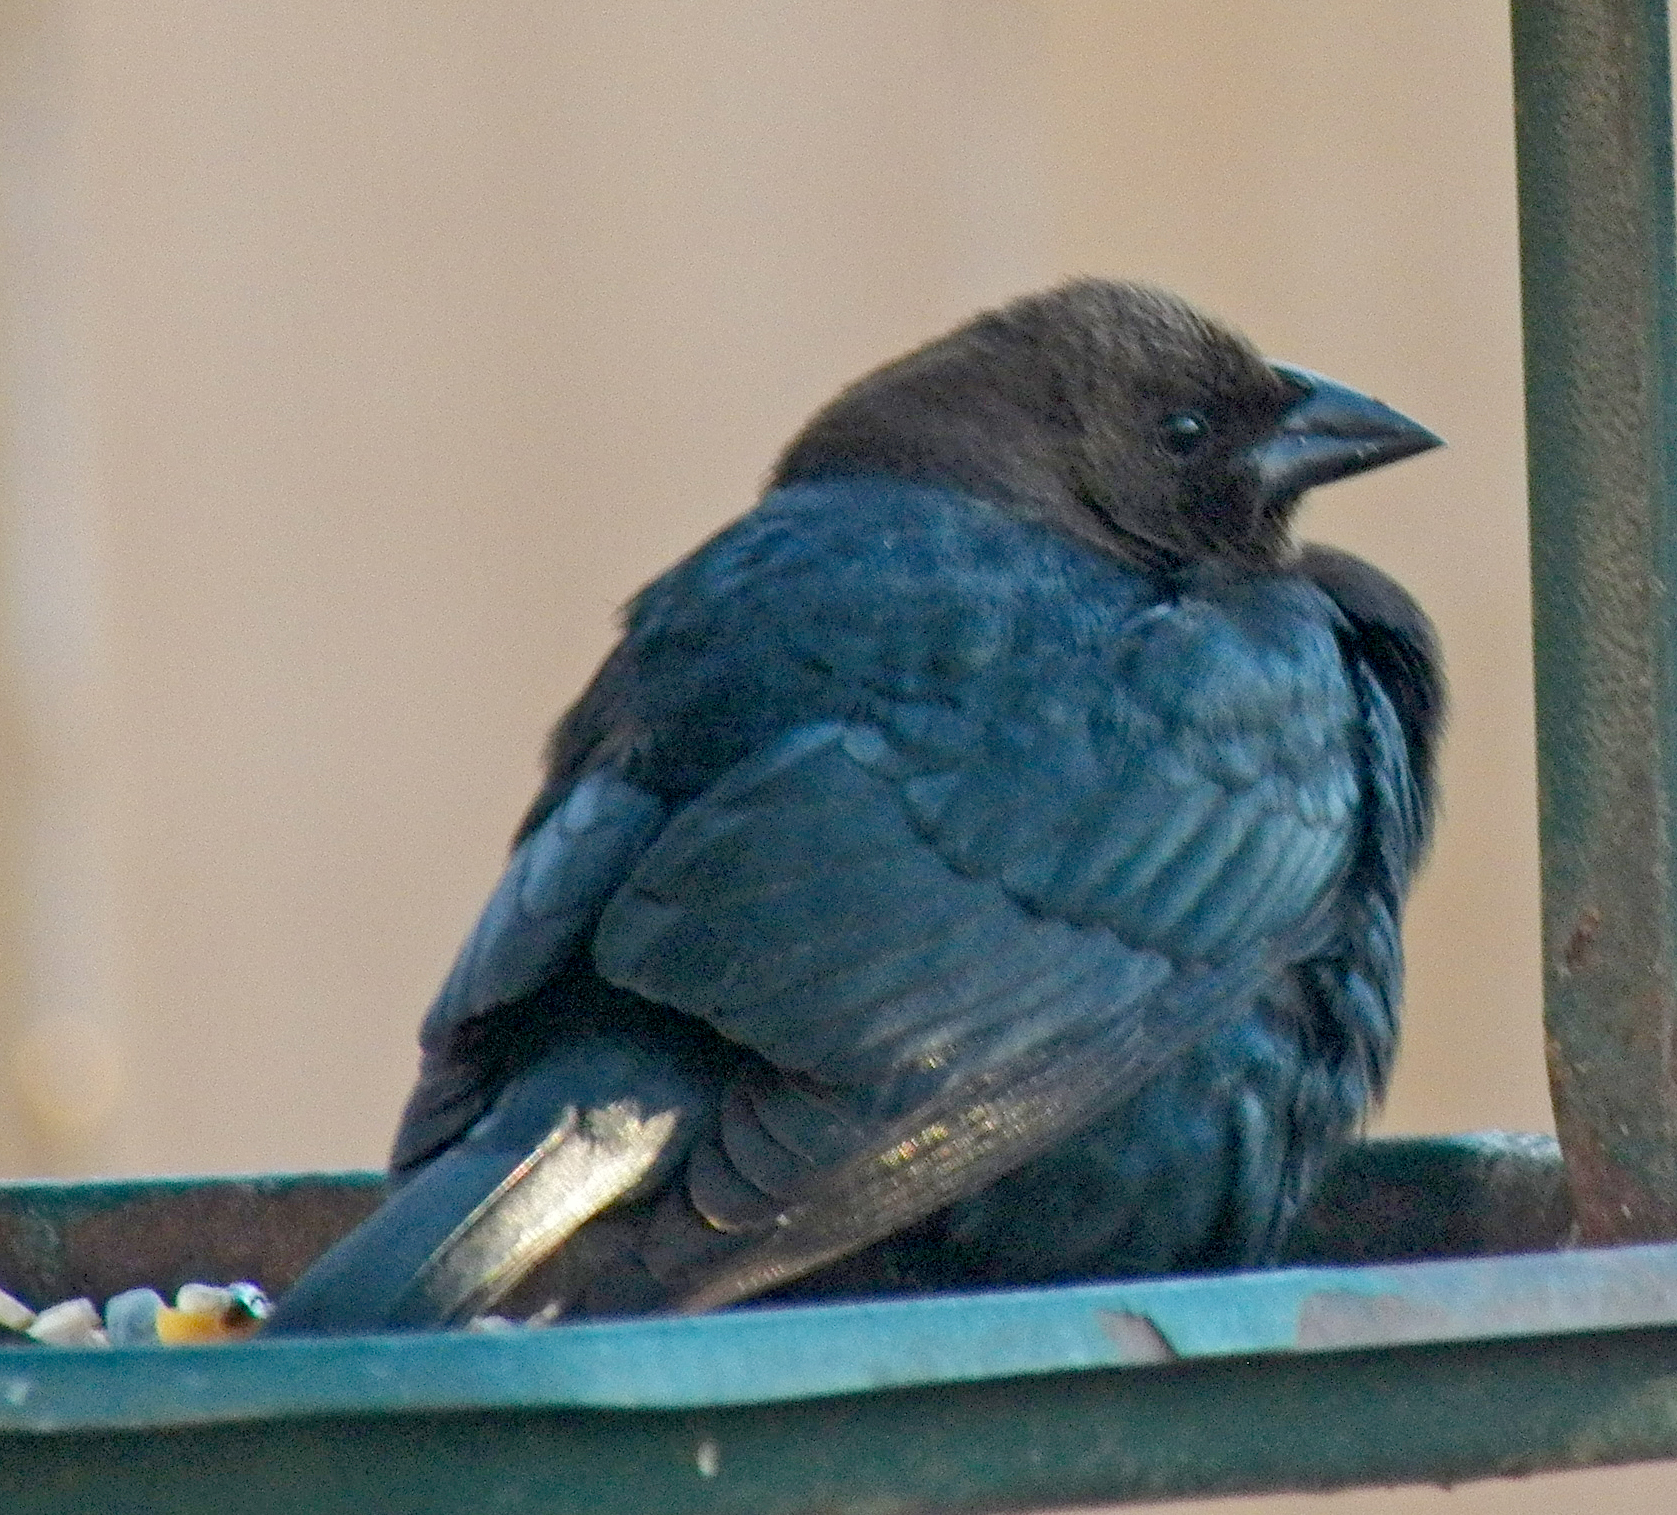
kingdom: Animalia
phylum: Chordata
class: Aves
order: Passeriformes
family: Icteridae
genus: Molothrus
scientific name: Molothrus ater
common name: Brown-headed cowbird
